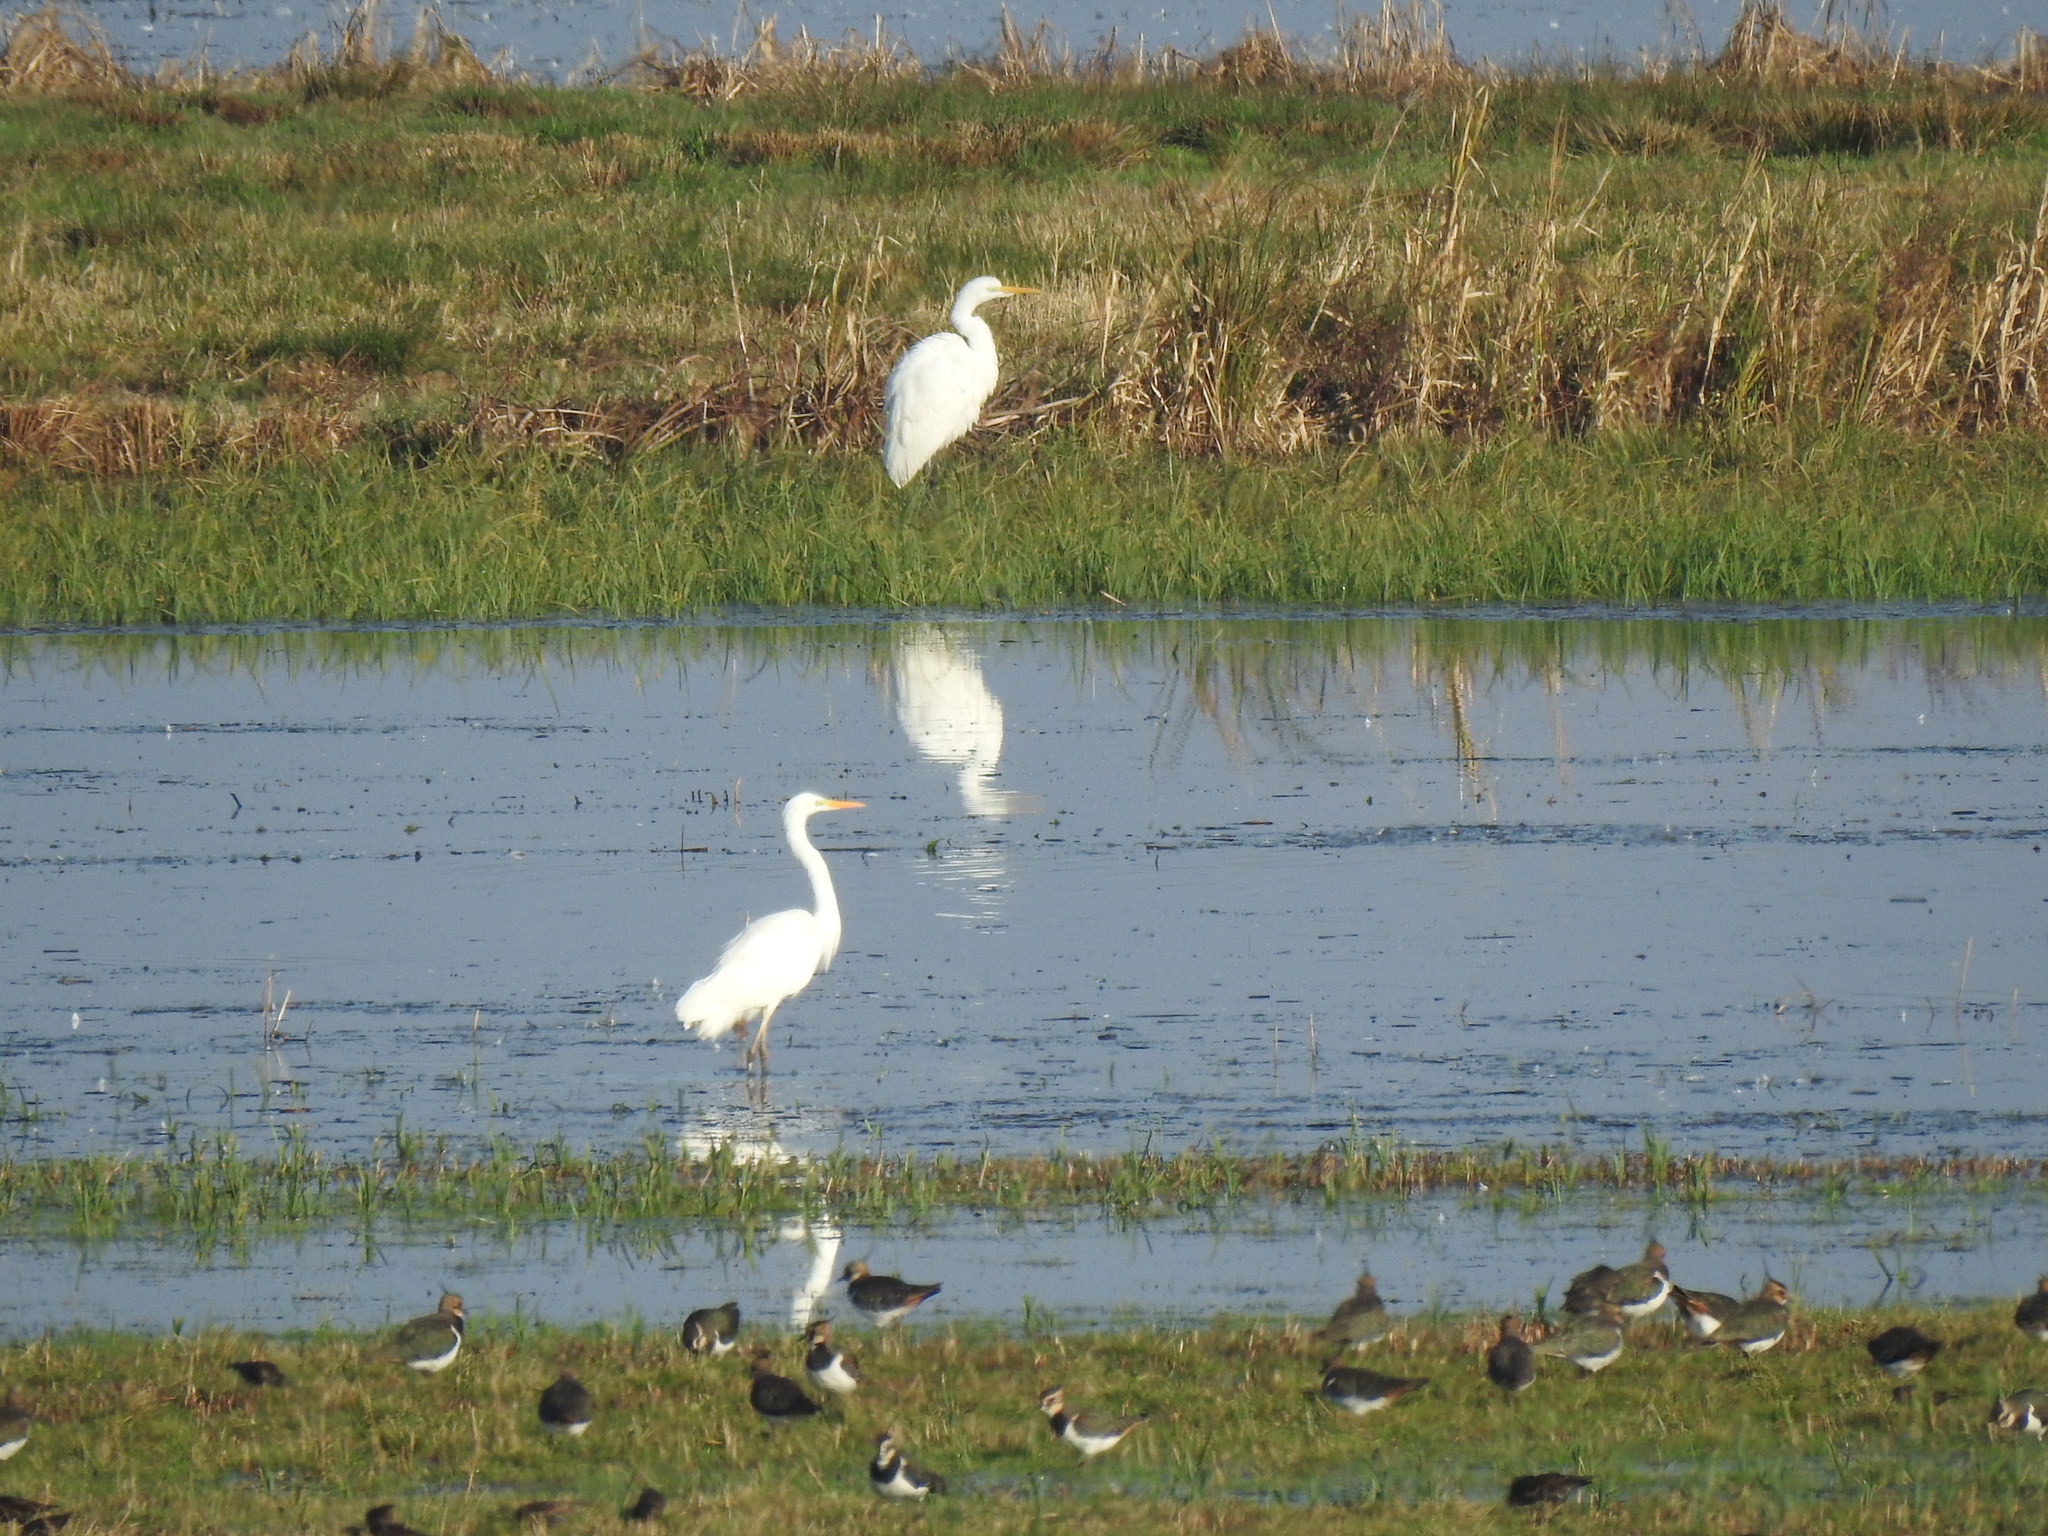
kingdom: Animalia
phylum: Chordata
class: Aves
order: Pelecaniformes
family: Ardeidae
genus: Ardea
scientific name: Ardea alba
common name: Great egret
